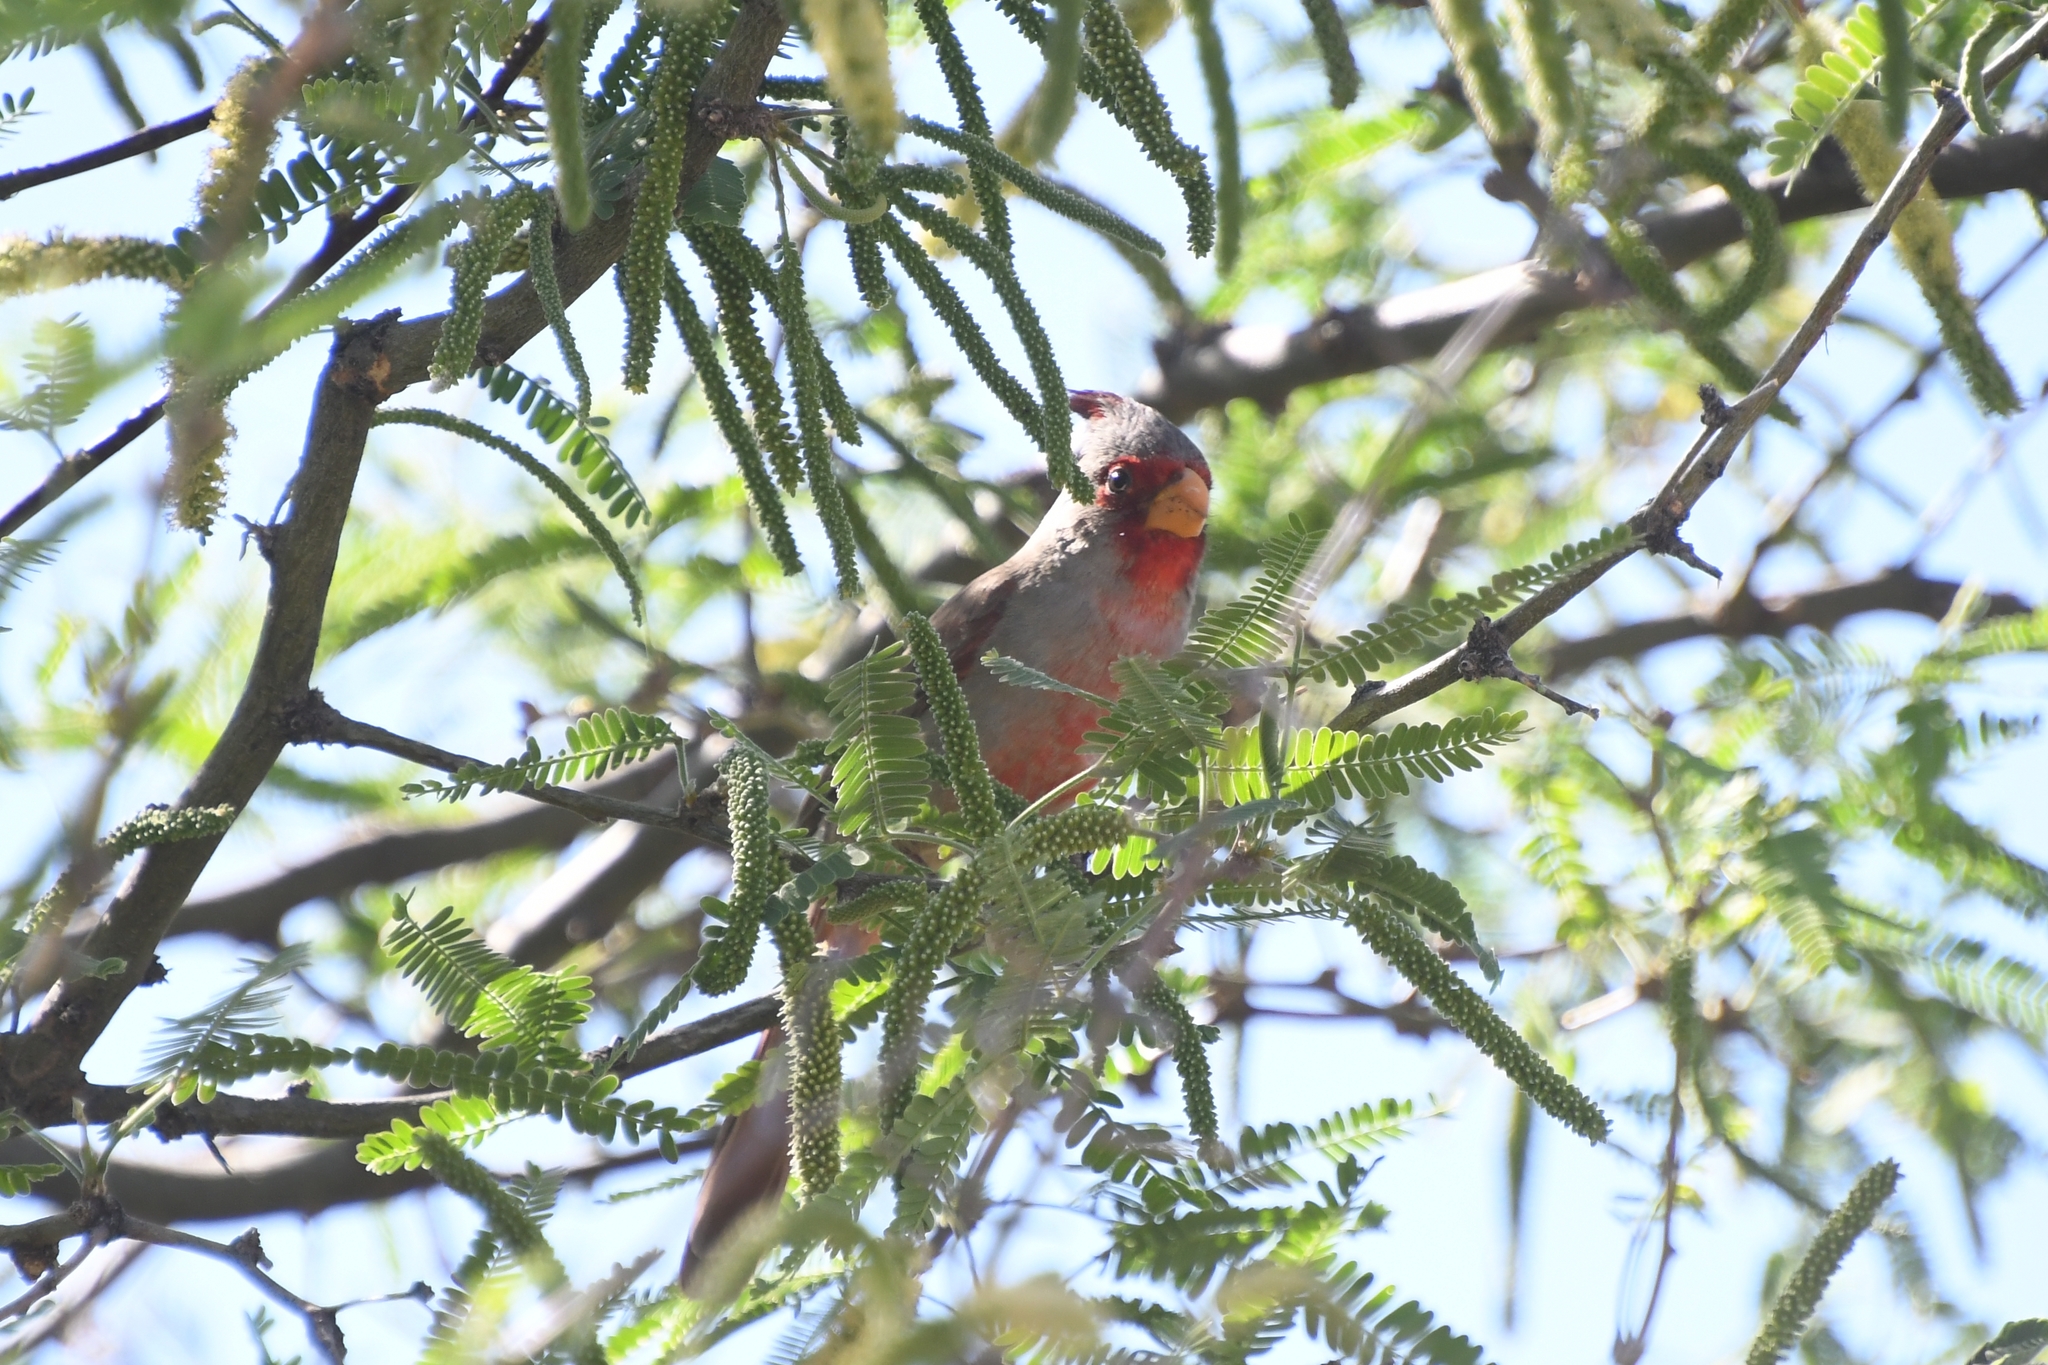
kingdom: Animalia
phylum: Chordata
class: Aves
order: Passeriformes
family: Cardinalidae
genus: Cardinalis
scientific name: Cardinalis sinuatus
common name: Pyrrhuloxia
